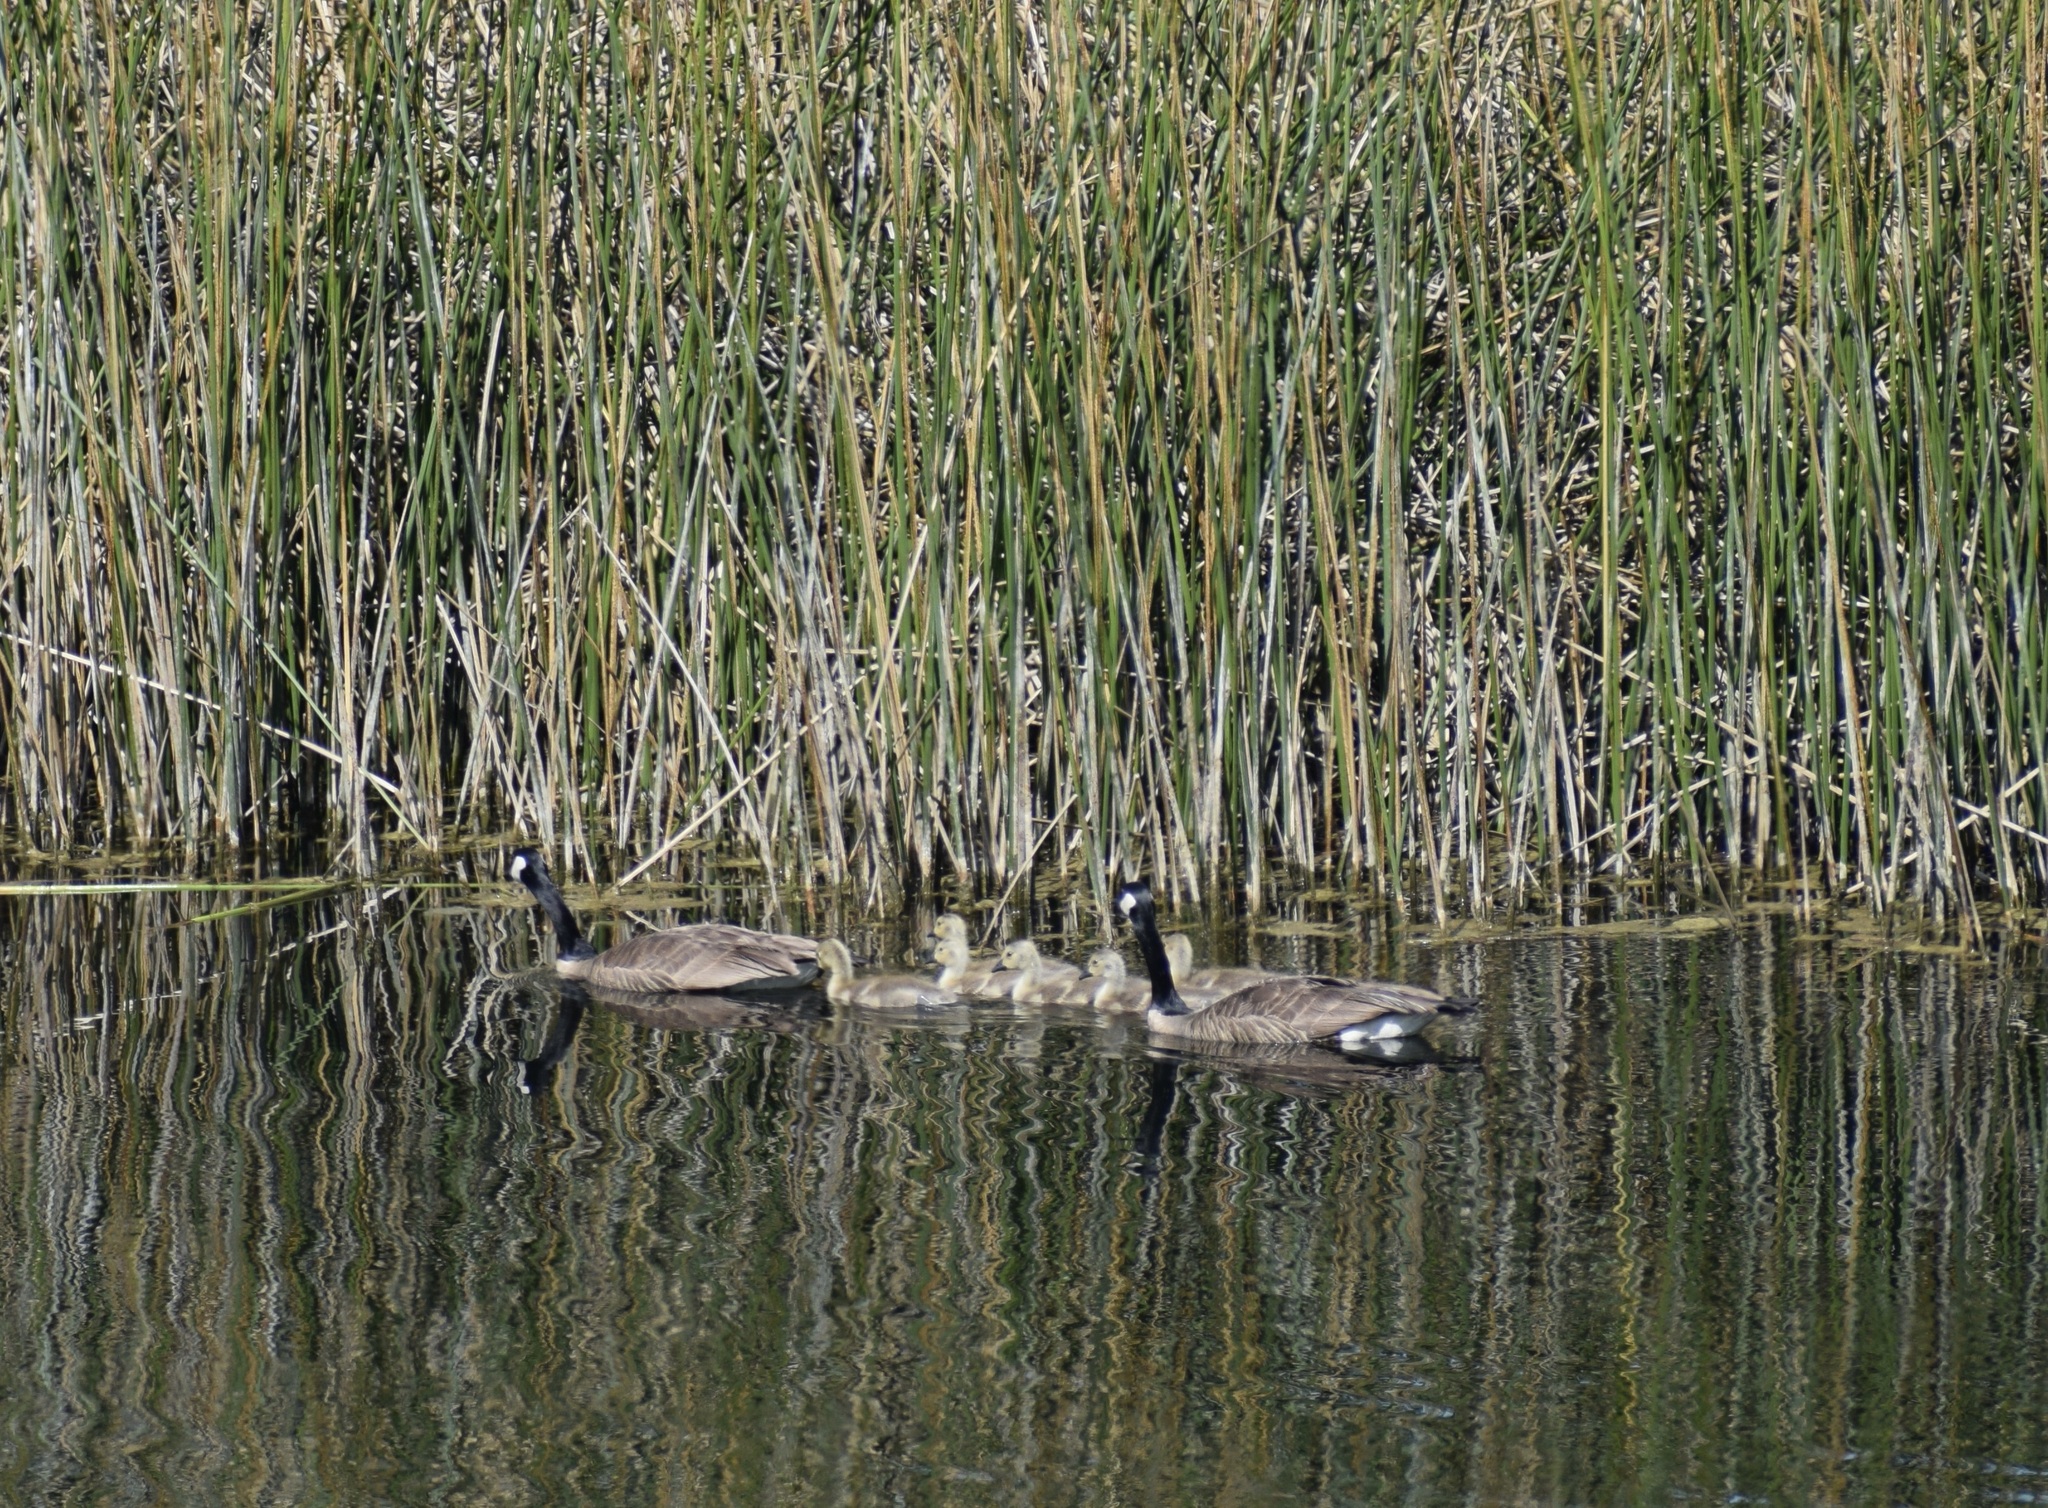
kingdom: Animalia
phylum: Chordata
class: Aves
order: Anseriformes
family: Anatidae
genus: Branta
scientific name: Branta canadensis
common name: Canada goose
